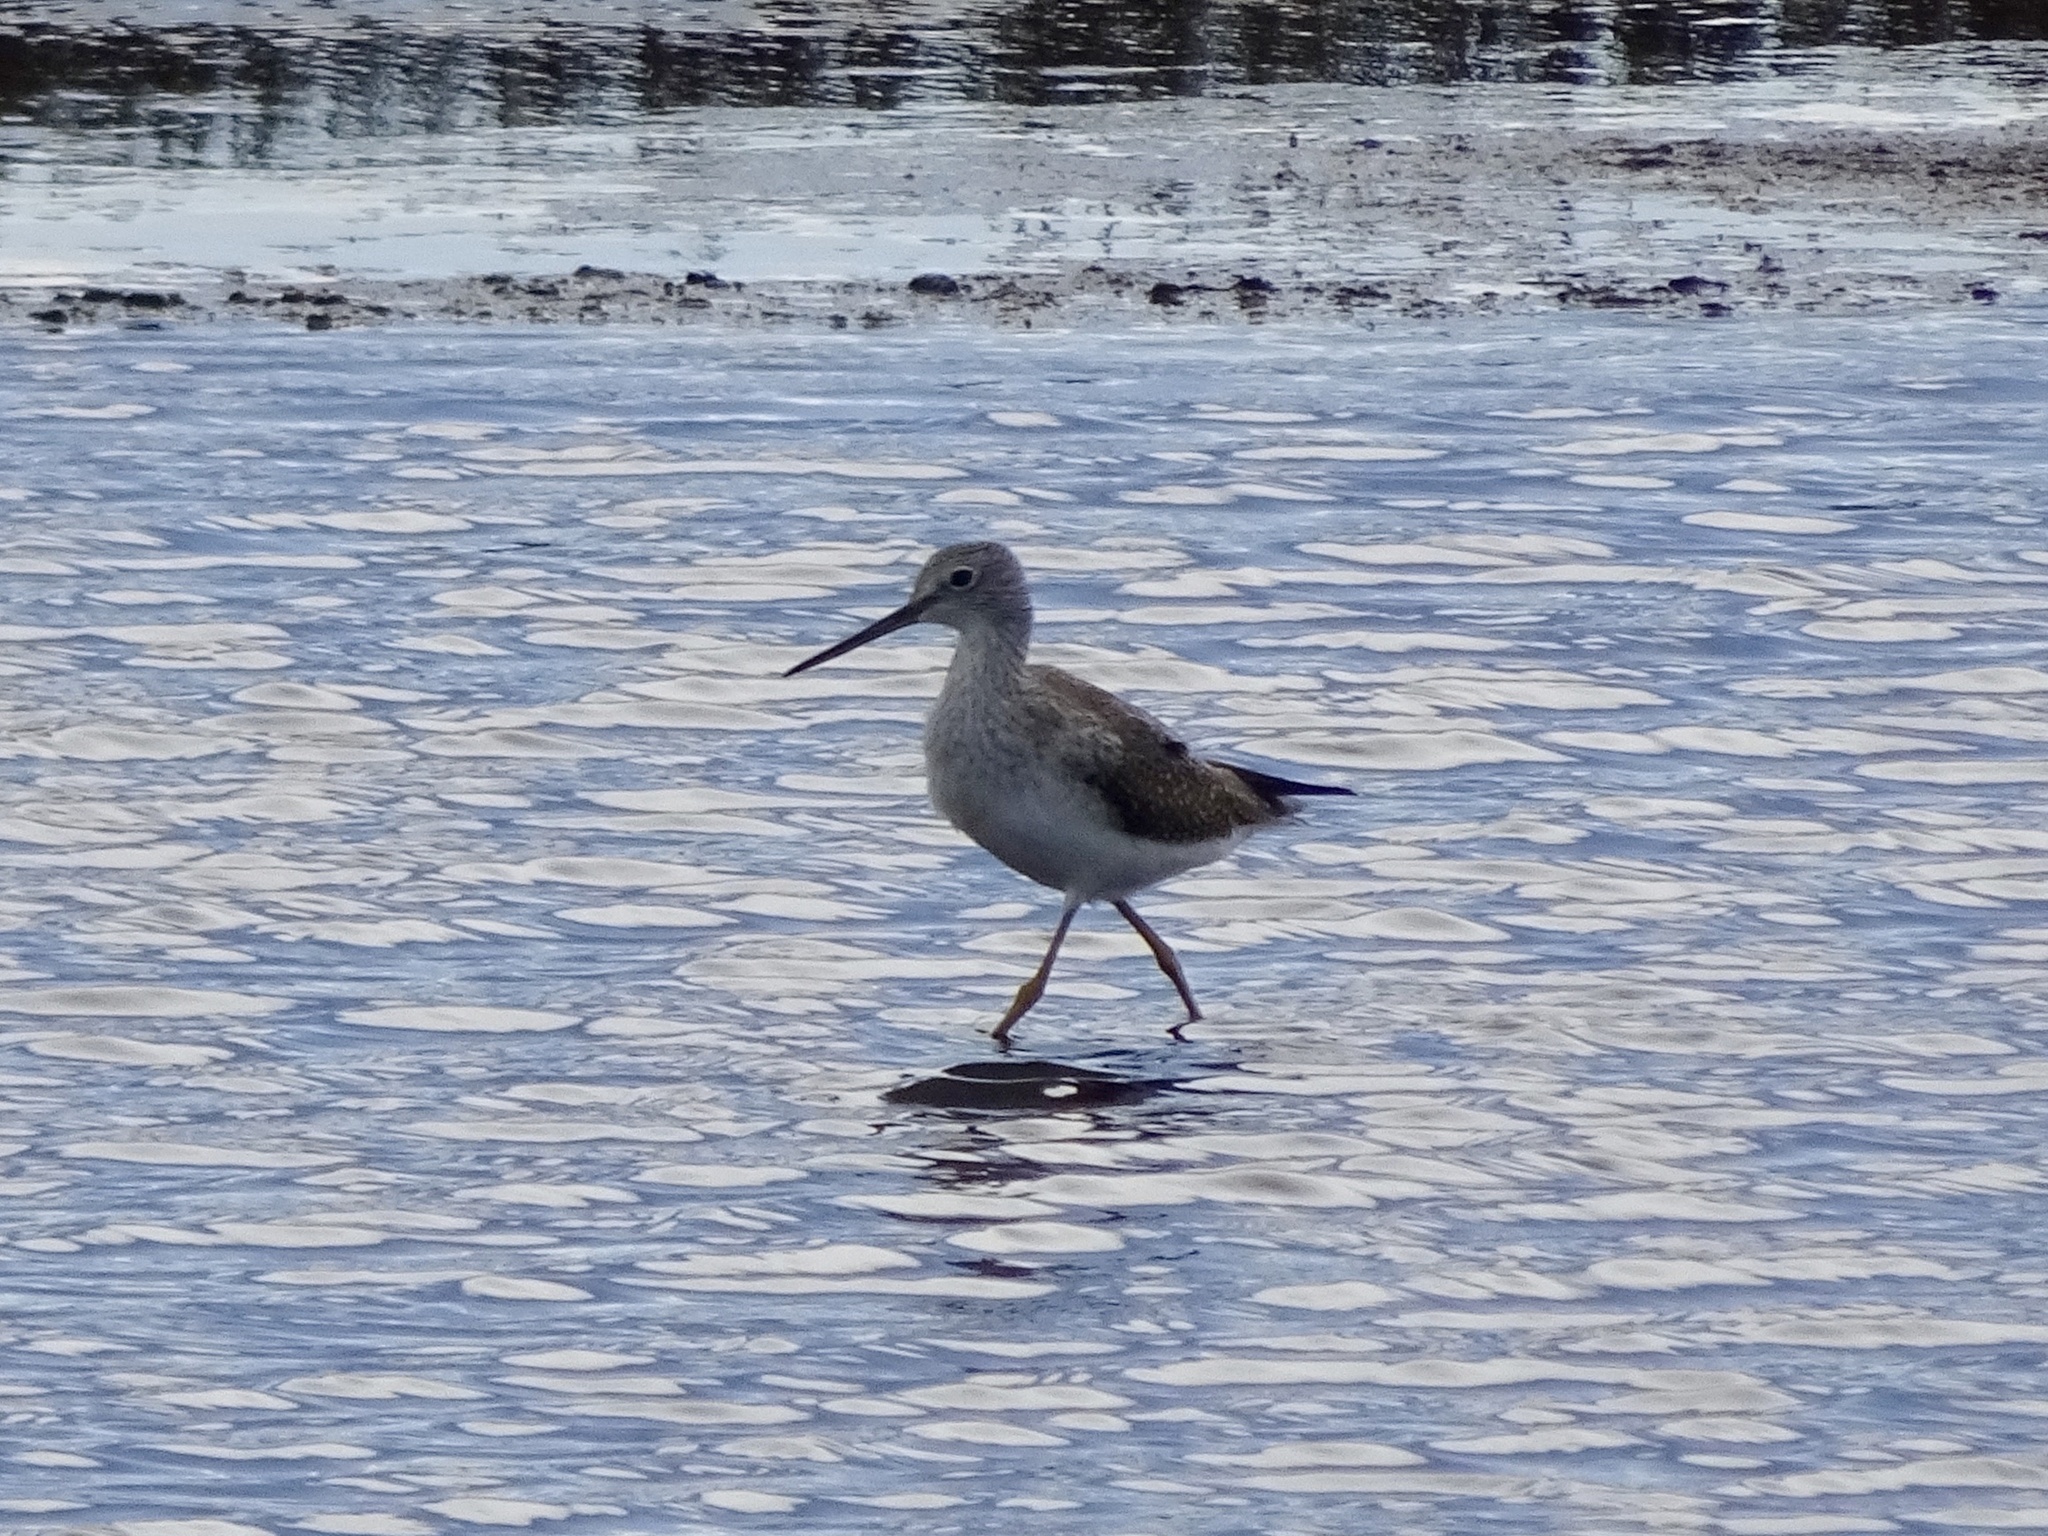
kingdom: Animalia
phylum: Chordata
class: Aves
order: Charadriiformes
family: Scolopacidae
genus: Tringa
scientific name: Tringa melanoleuca
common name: Greater yellowlegs
